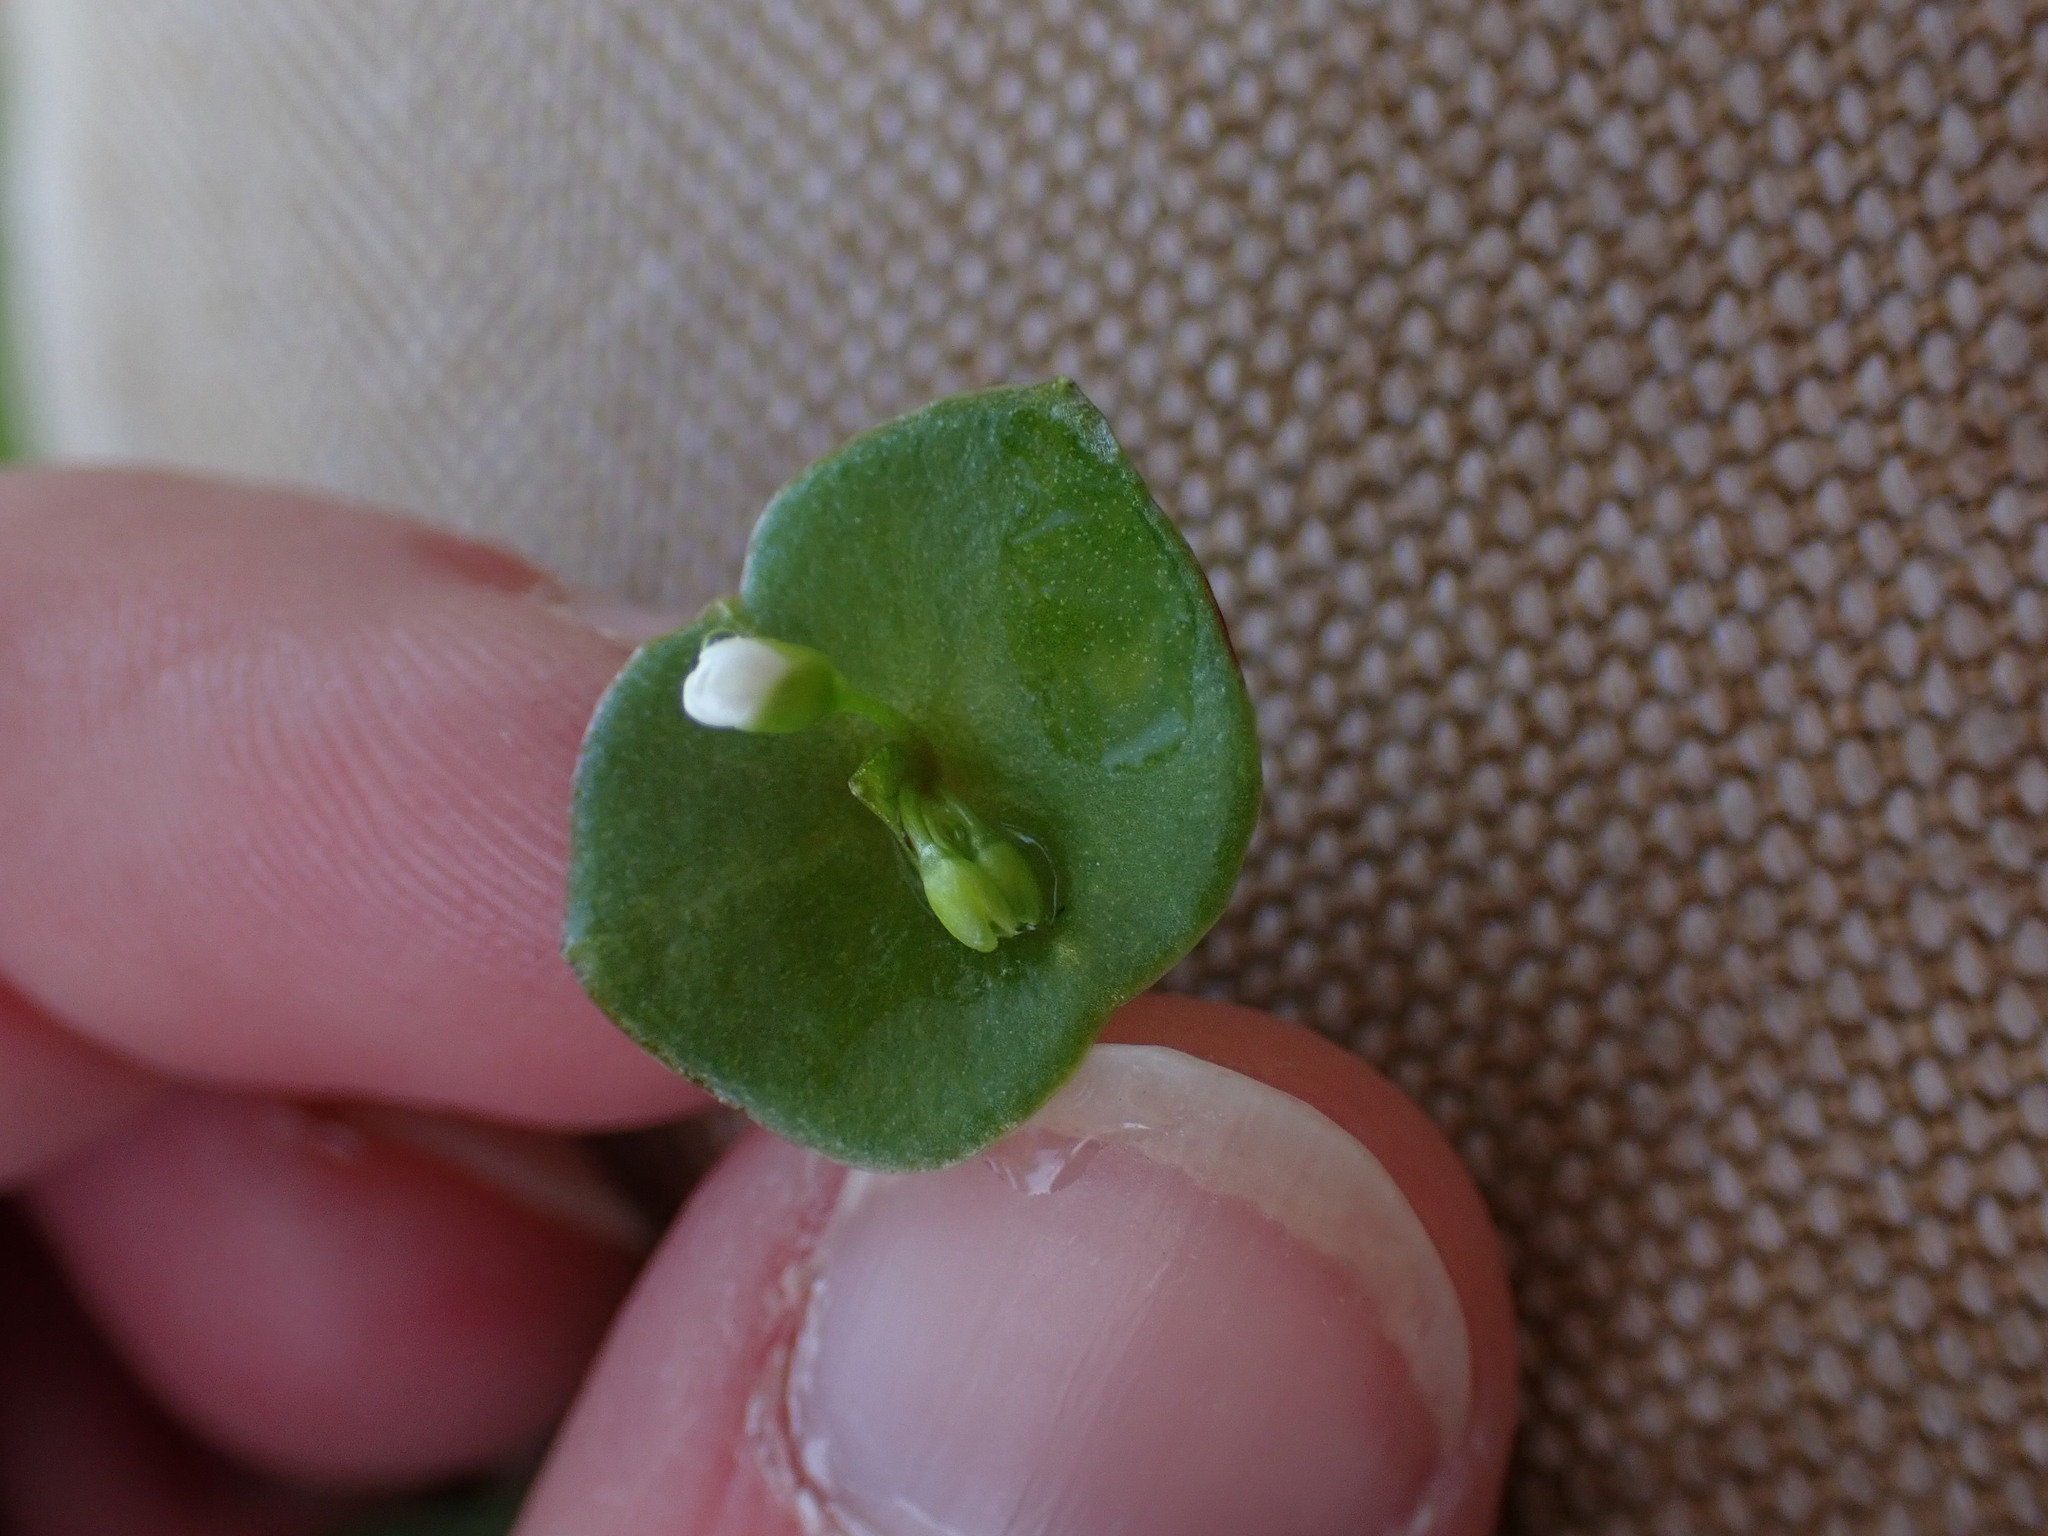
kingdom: Plantae
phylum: Tracheophyta
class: Magnoliopsida
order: Caryophyllales
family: Montiaceae
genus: Claytonia
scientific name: Claytonia perfoliata
